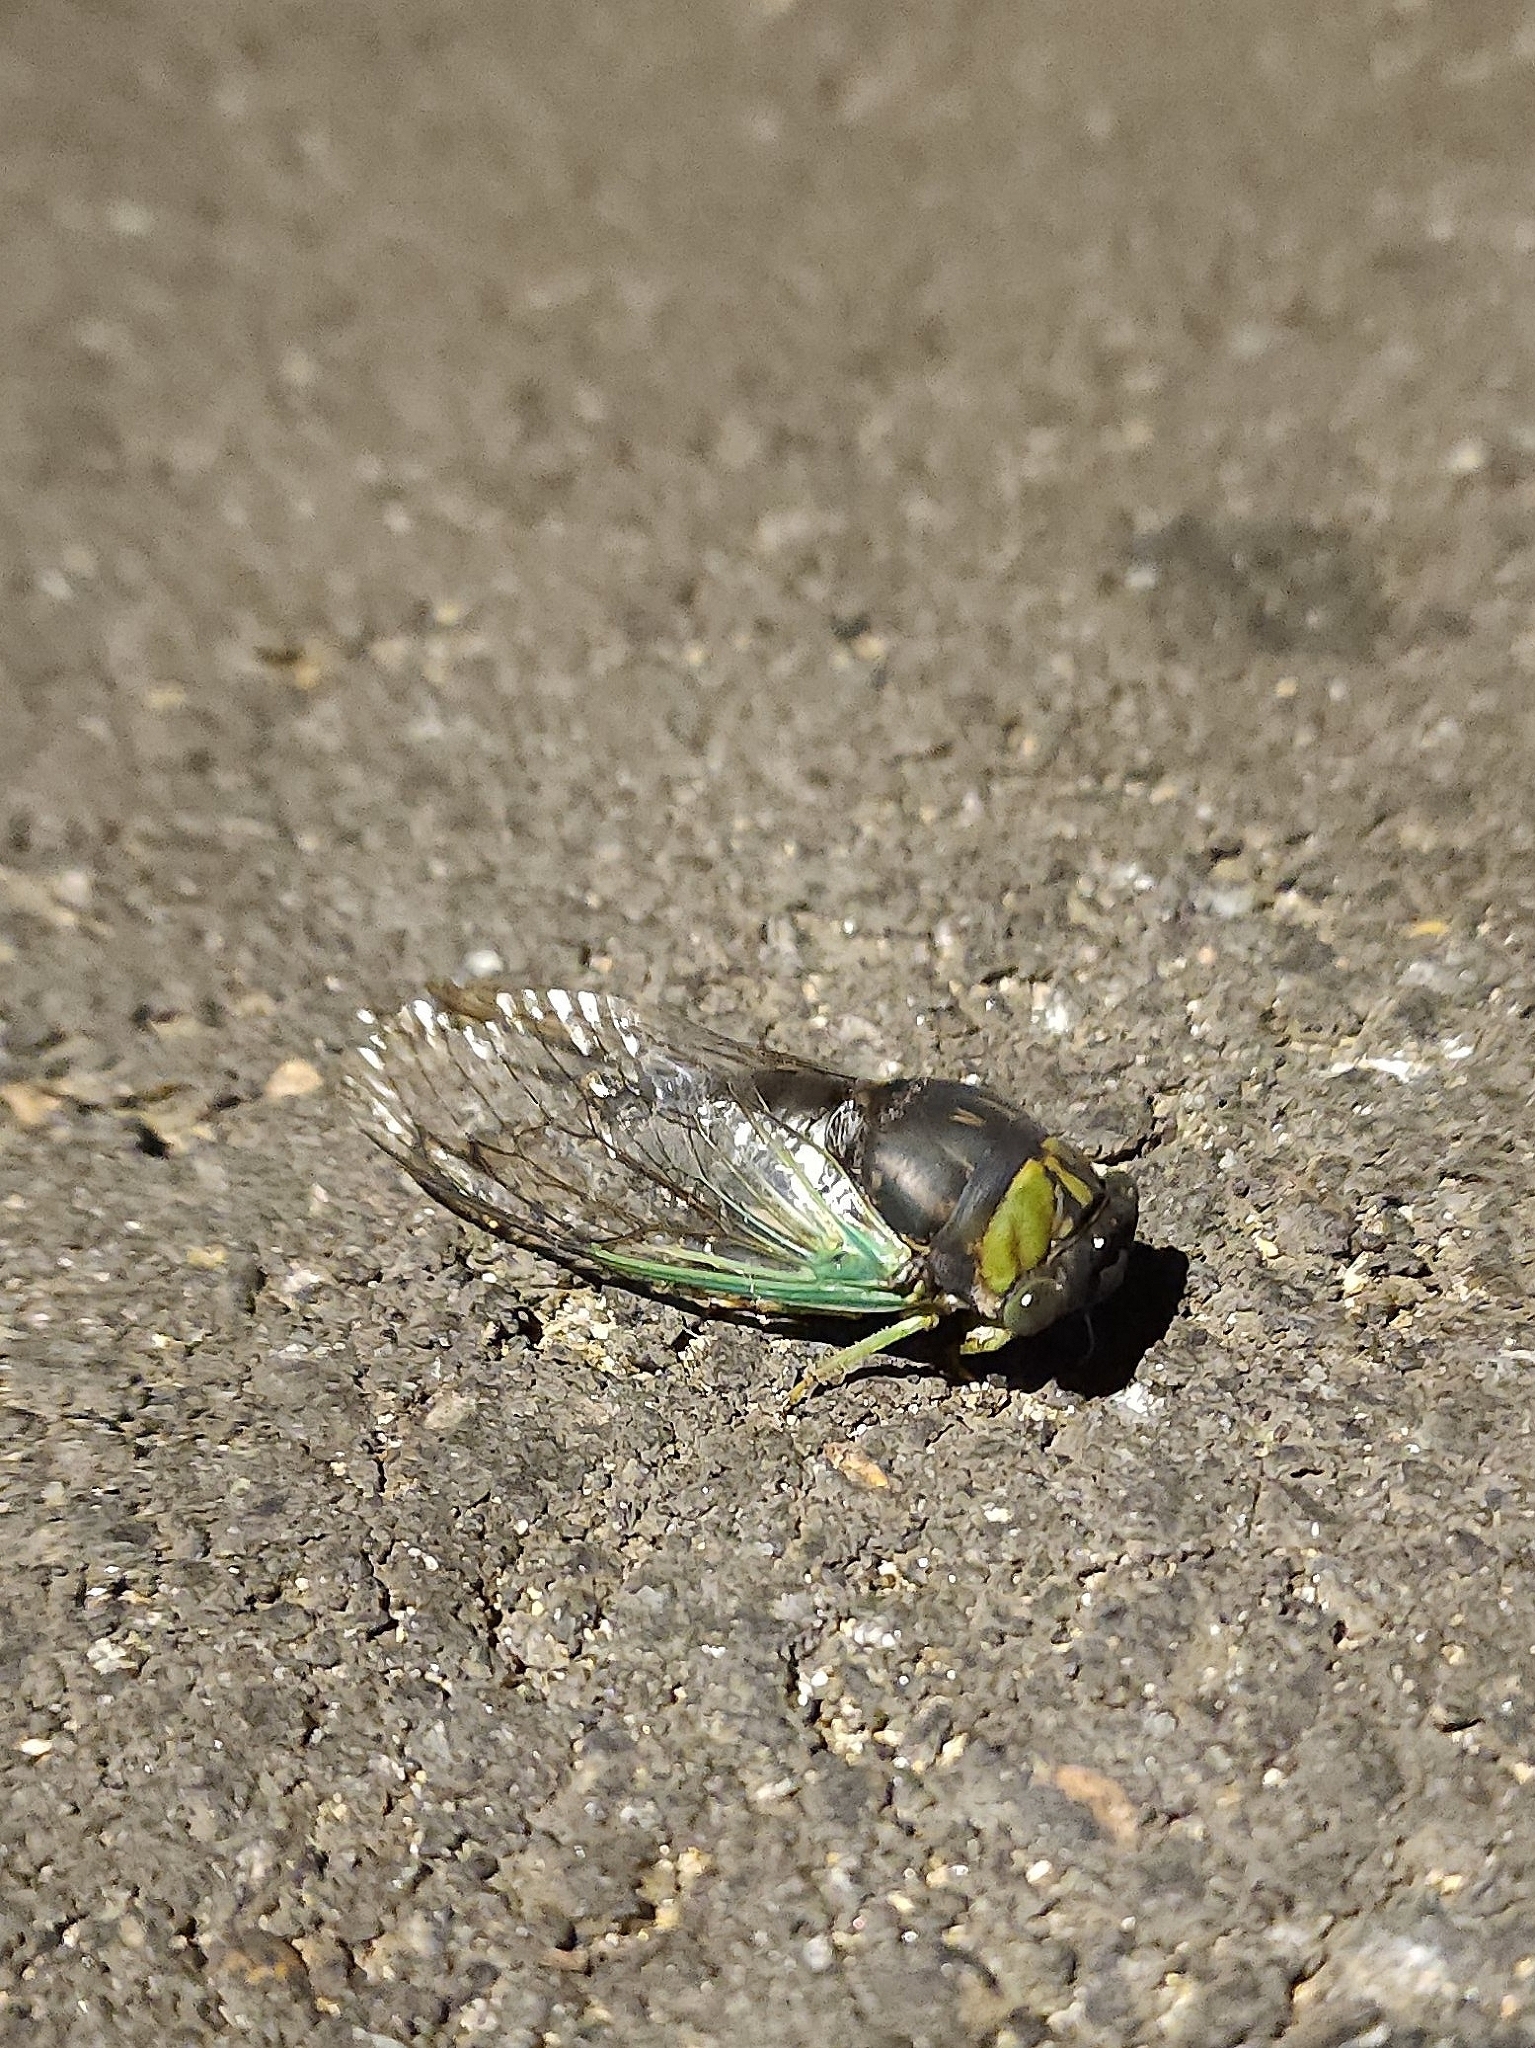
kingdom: Animalia
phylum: Arthropoda
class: Insecta
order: Hemiptera
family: Cicadidae
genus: Neotibicen
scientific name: Neotibicen tibicen
